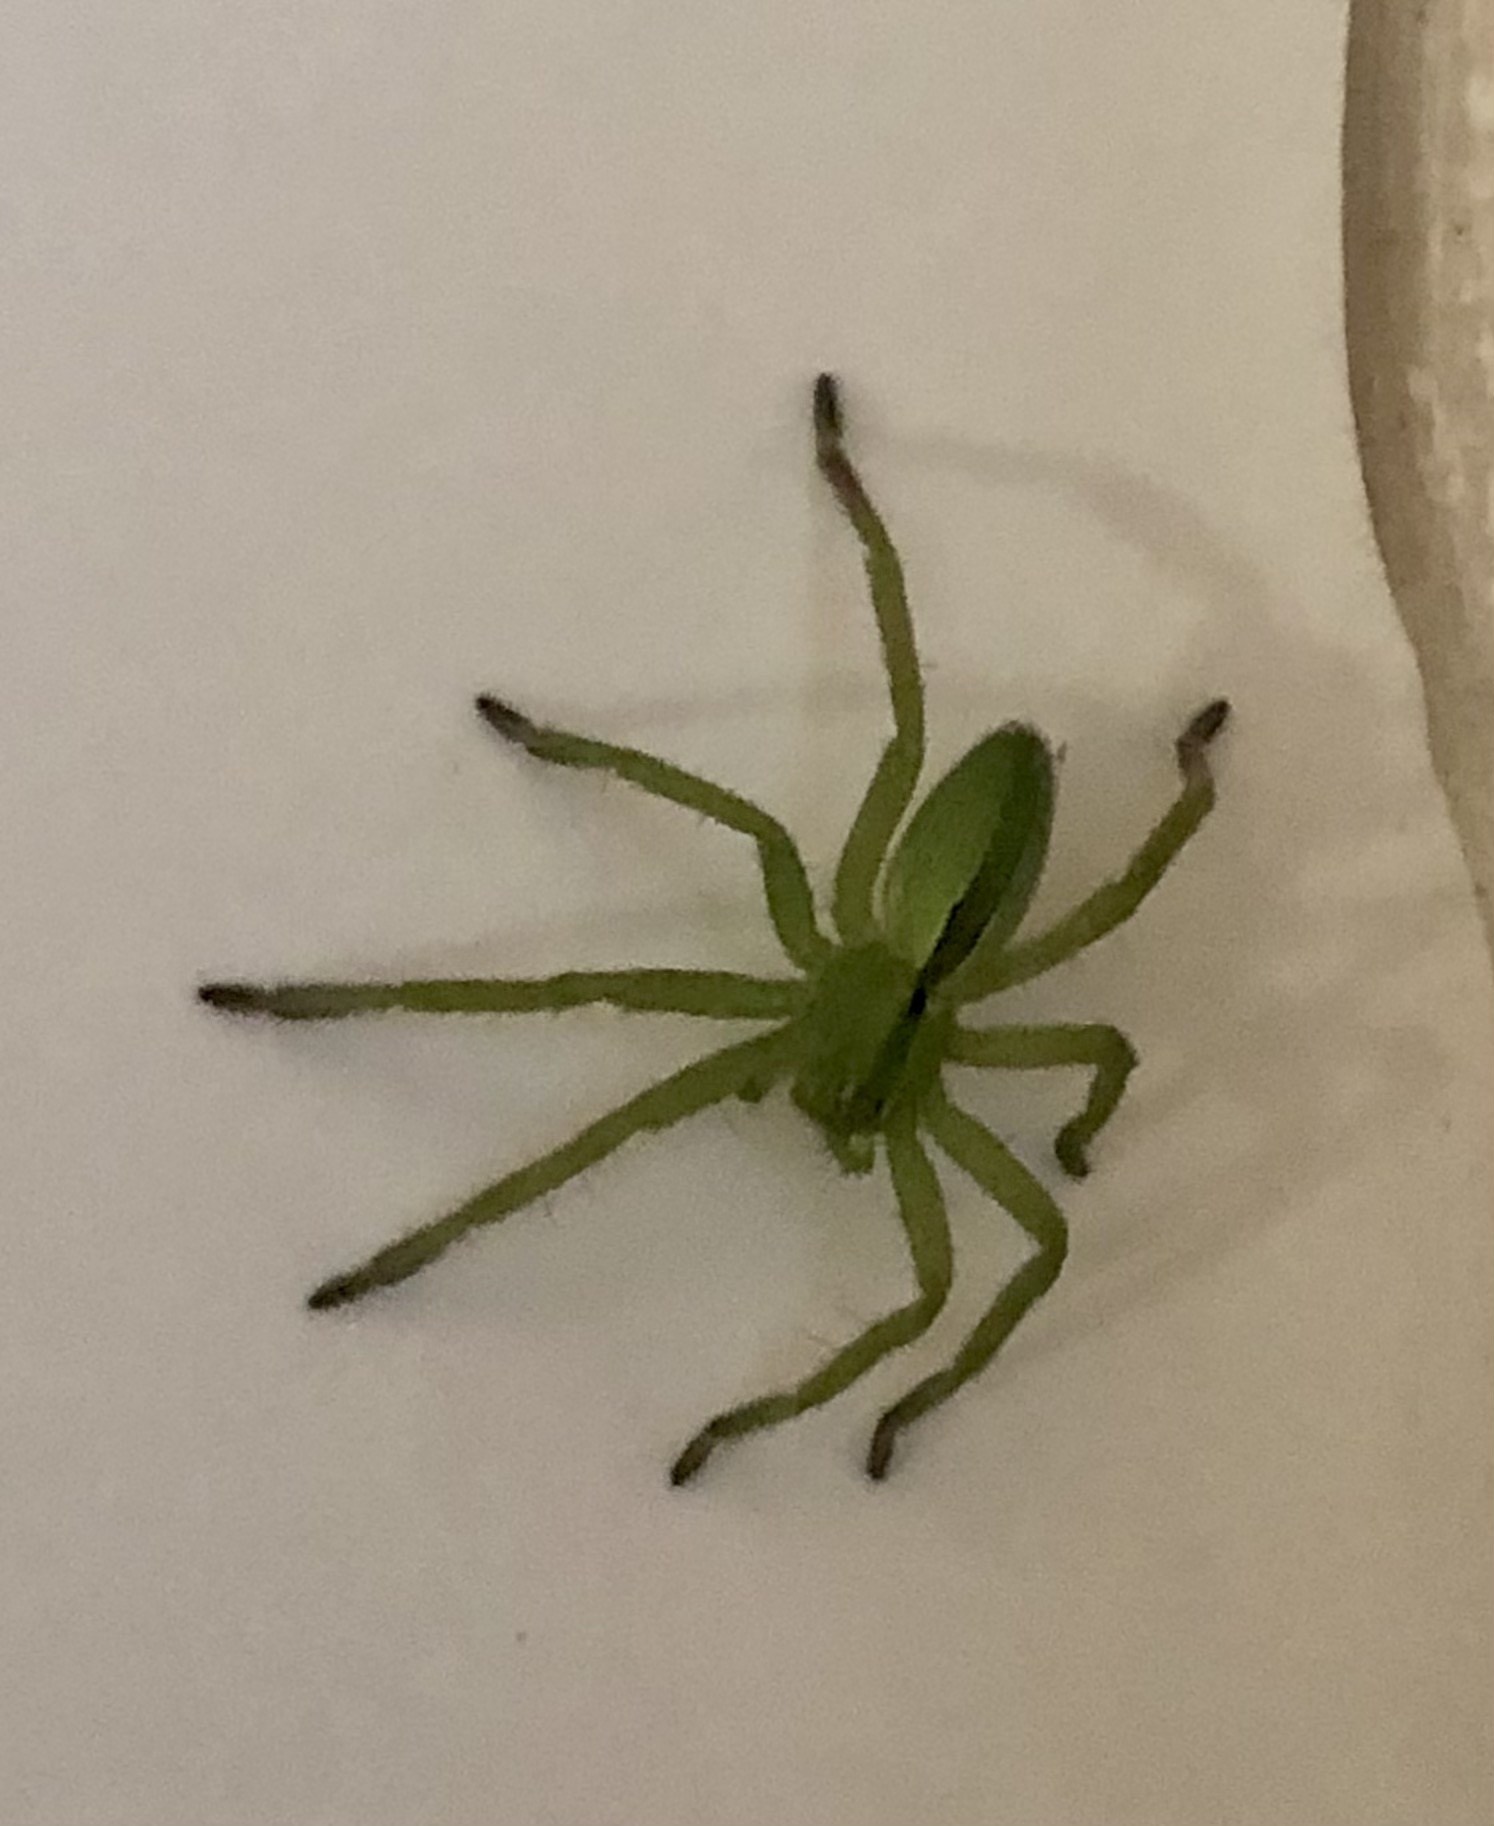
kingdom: Animalia
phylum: Arthropoda
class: Arachnida
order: Araneae
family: Sparassidae
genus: Micrommata
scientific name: Micrommata ligurina
